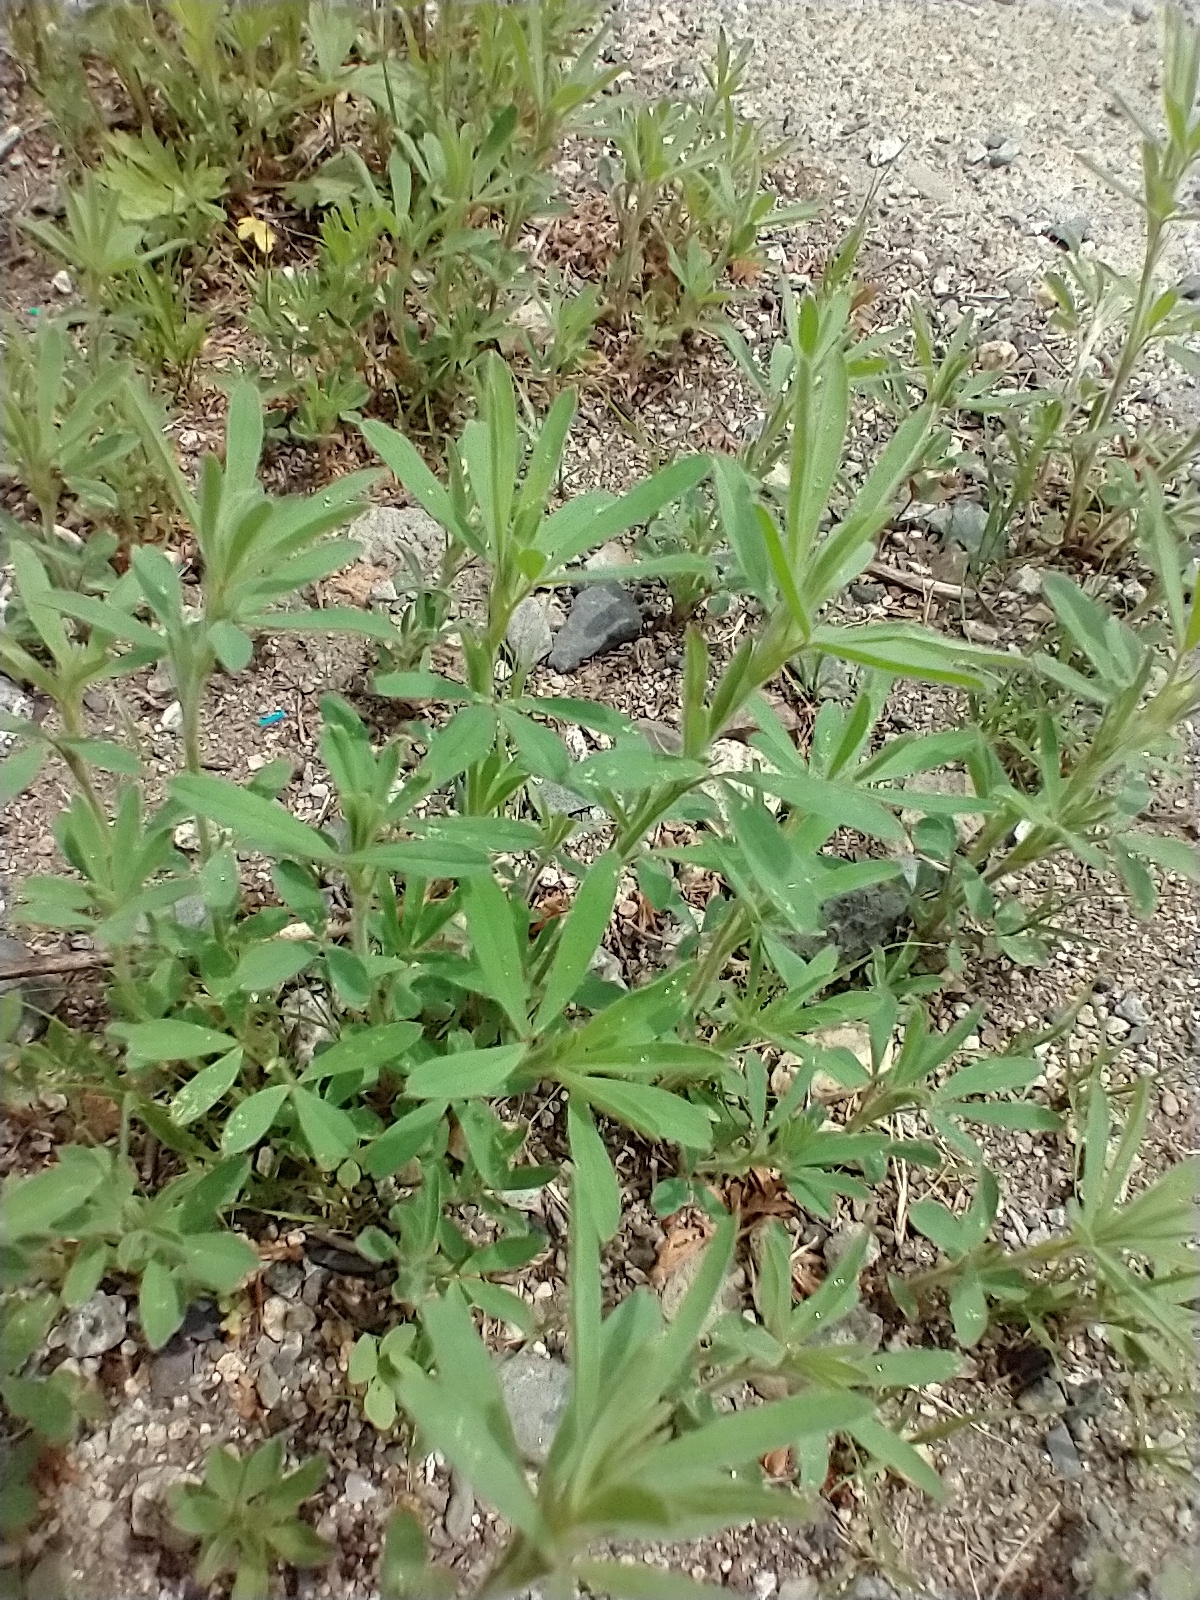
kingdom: Plantae
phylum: Tracheophyta
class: Magnoliopsida
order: Fabales
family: Fabaceae
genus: Trifolium
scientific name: Trifolium arvense
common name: Hare's-foot clover
